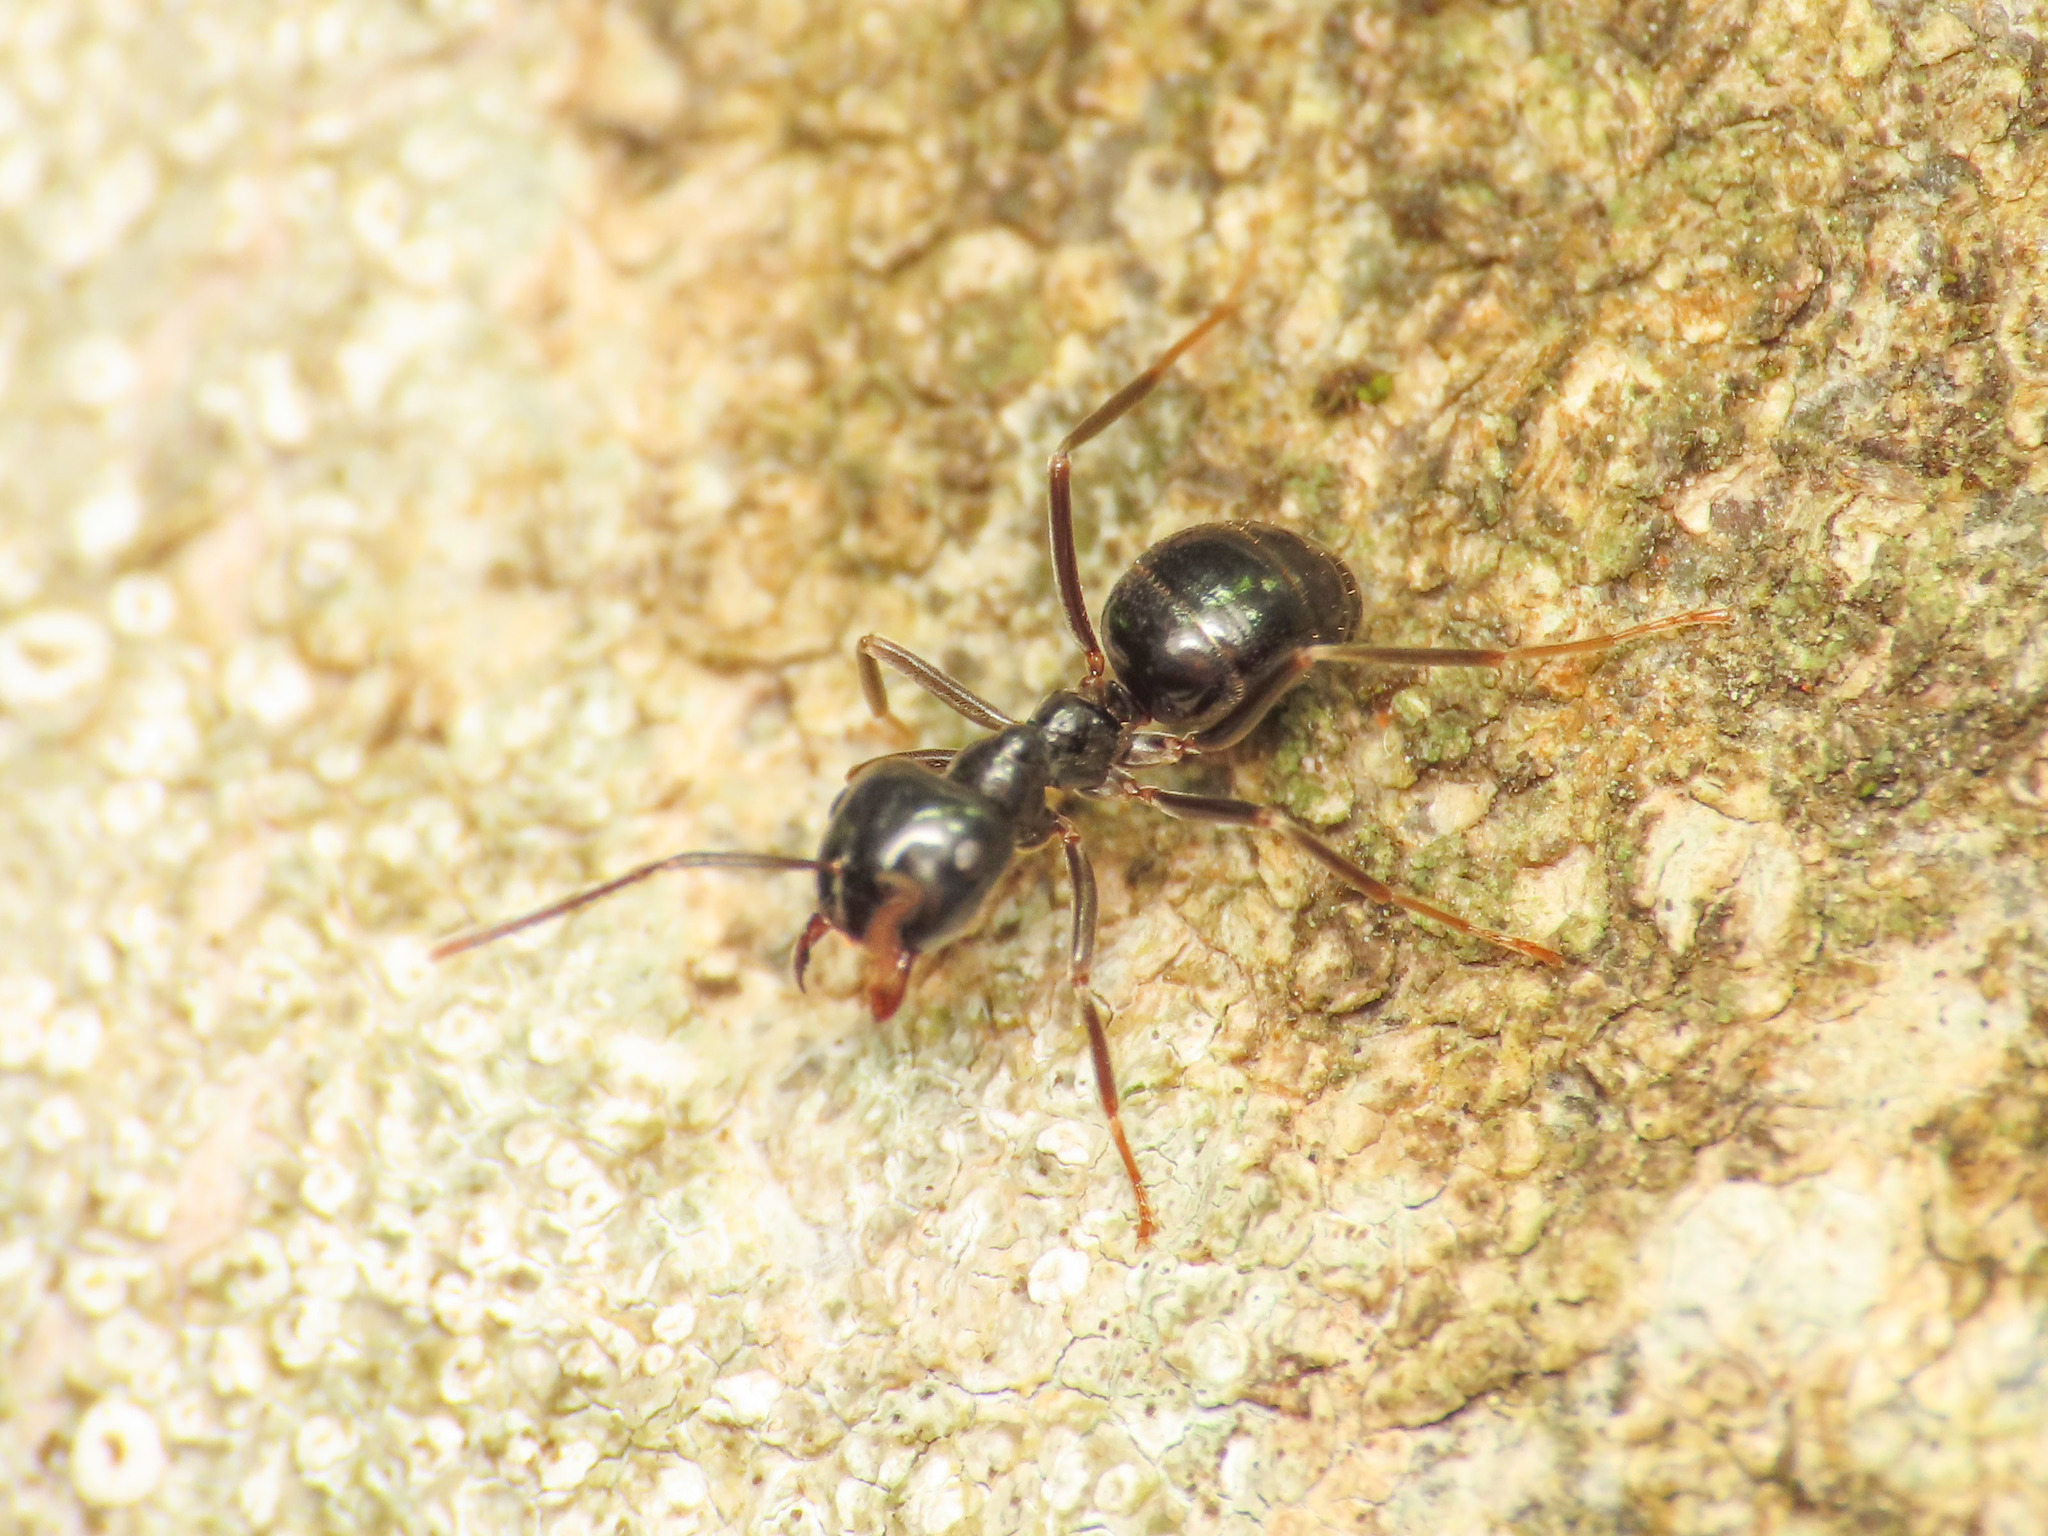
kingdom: Animalia
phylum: Arthropoda
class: Insecta
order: Hymenoptera
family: Formicidae
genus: Lasius
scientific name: Lasius fuliginosus
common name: Jet ant
